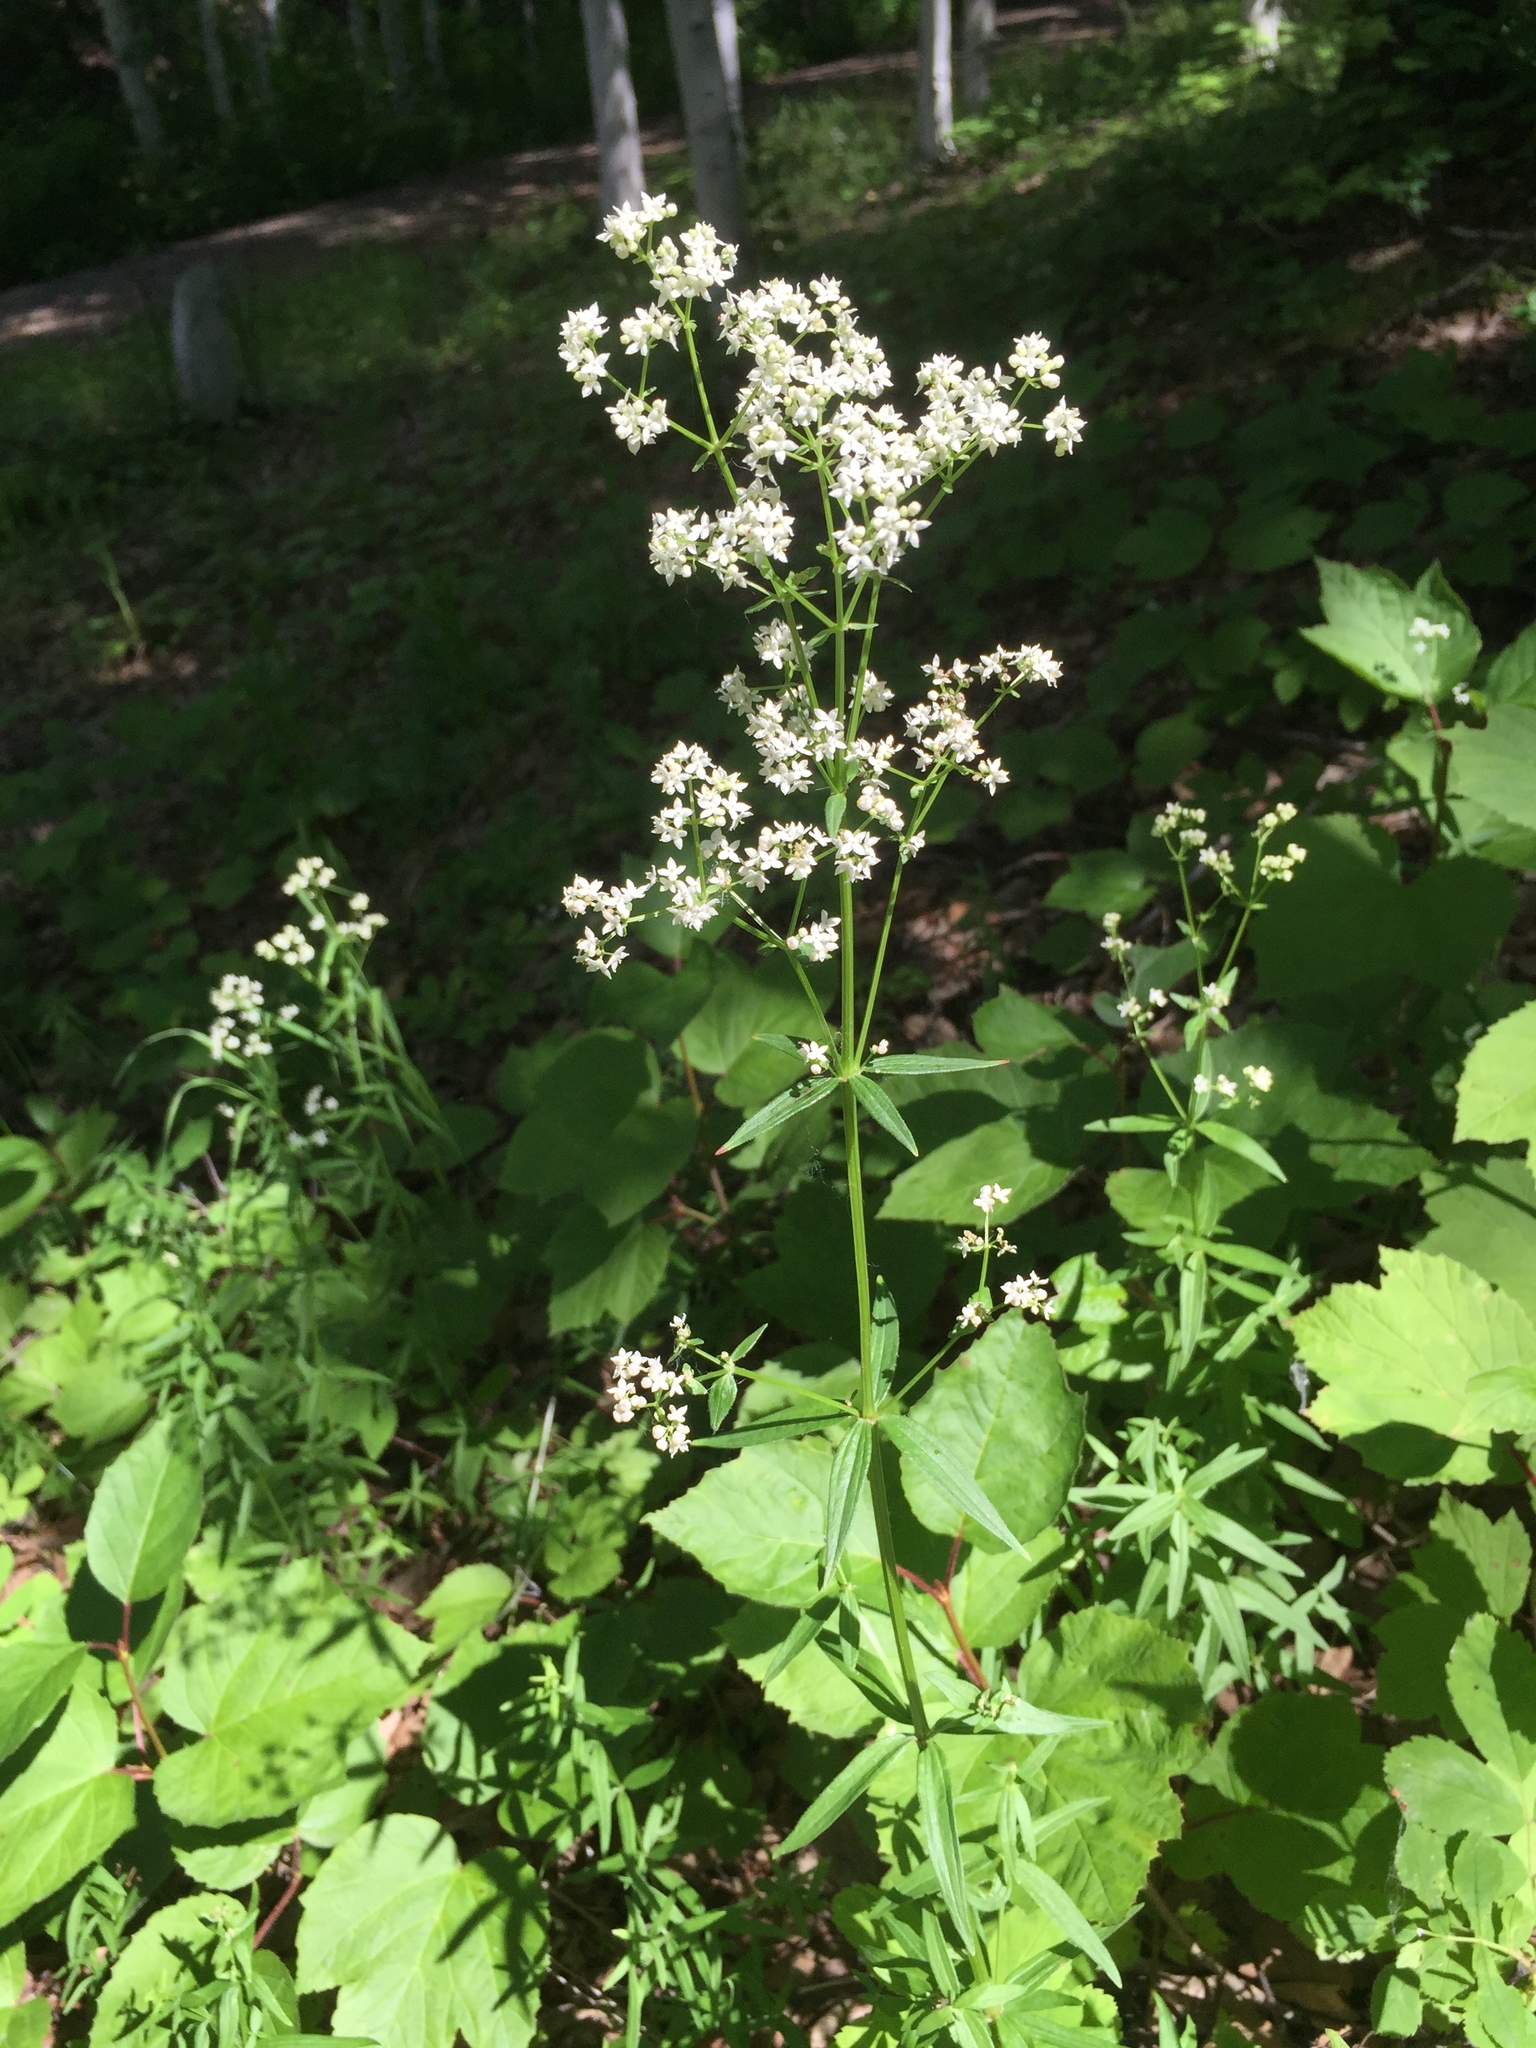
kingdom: Plantae
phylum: Tracheophyta
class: Magnoliopsida
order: Gentianales
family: Rubiaceae
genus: Galium
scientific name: Galium boreale
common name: Northern bedstraw
